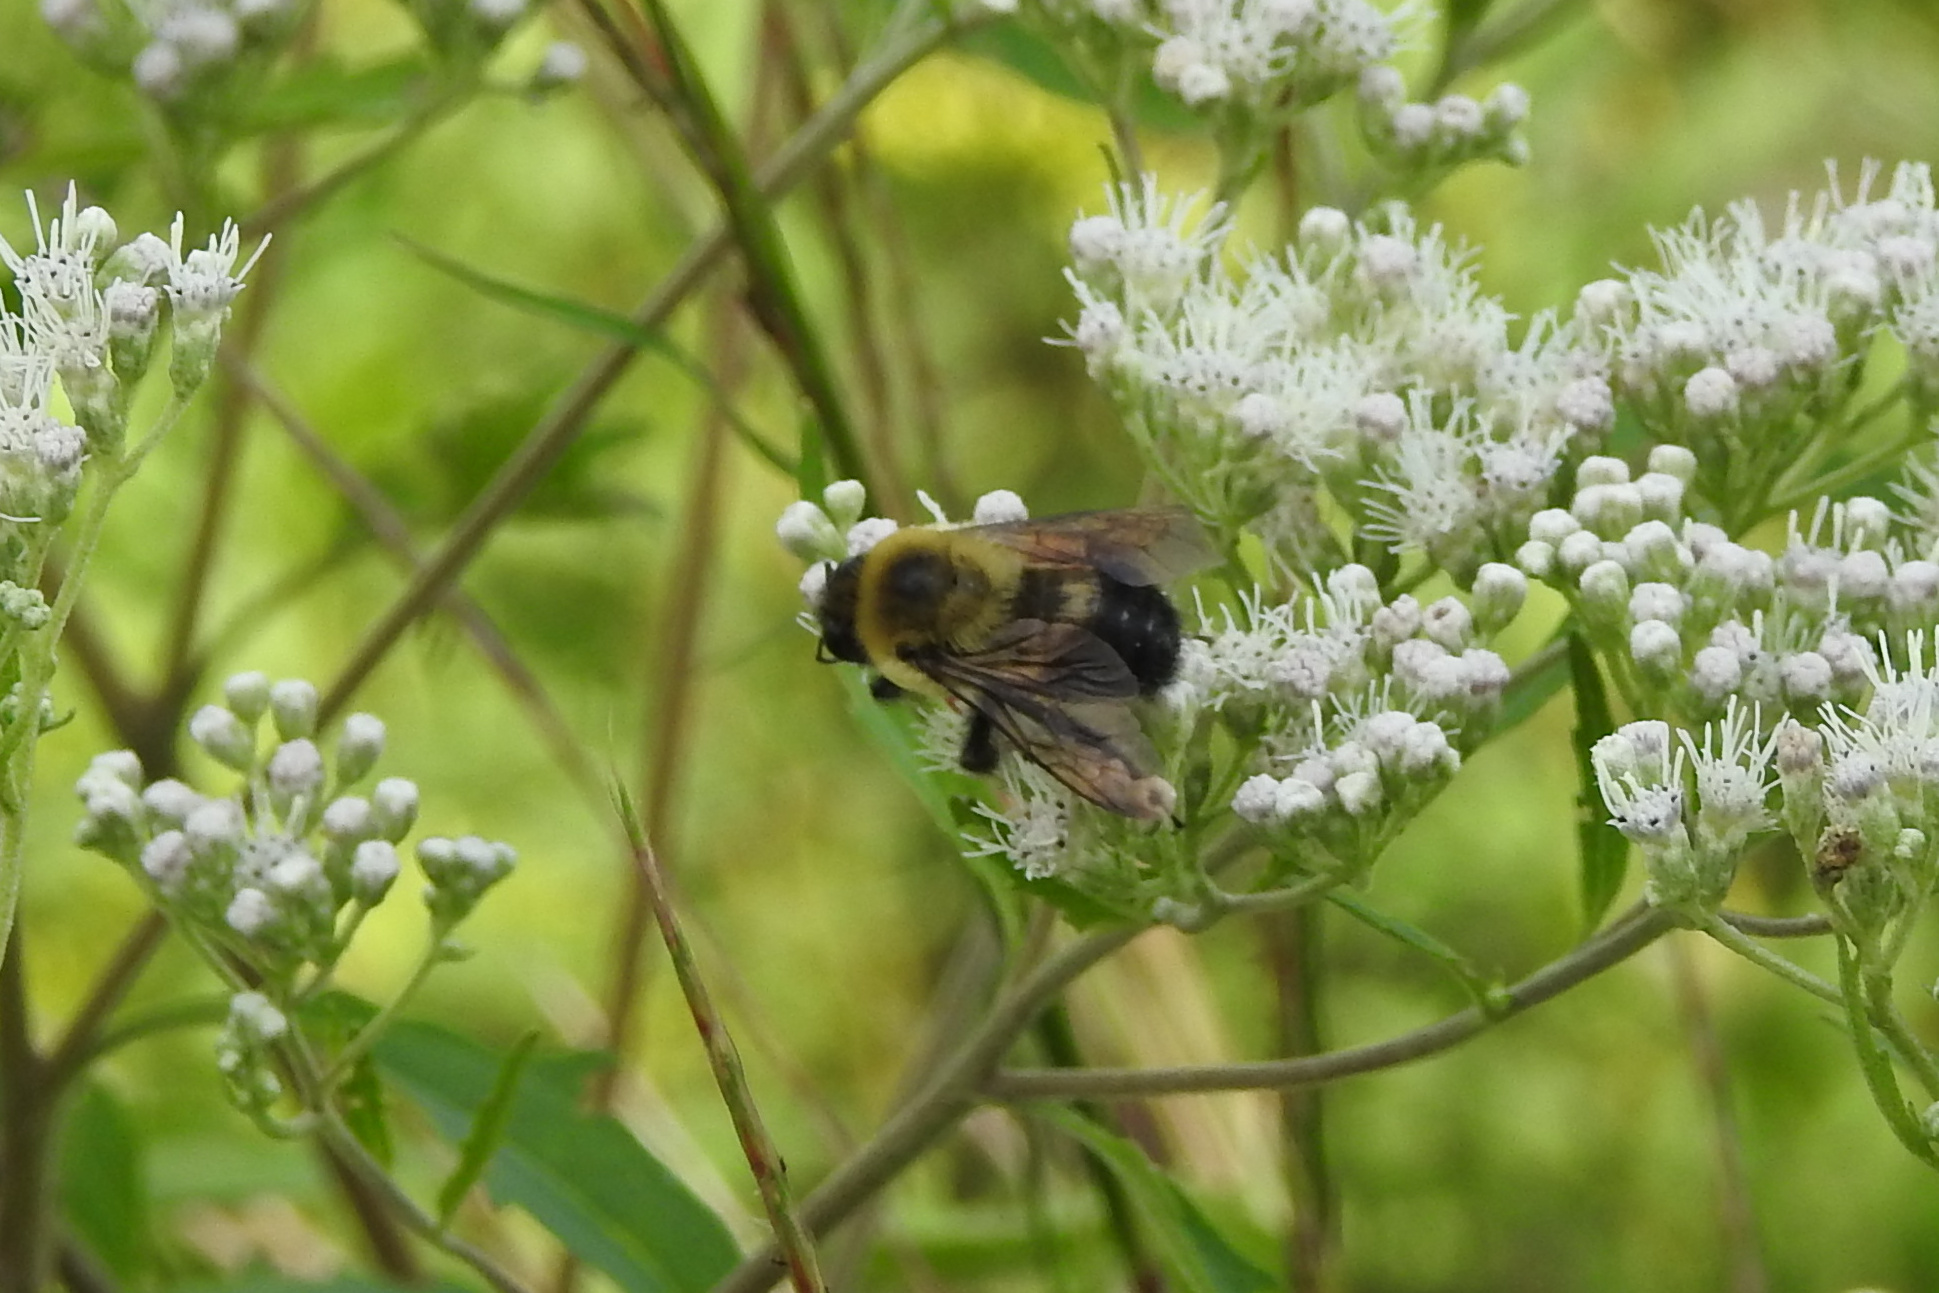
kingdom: Animalia
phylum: Arthropoda
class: Insecta
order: Hymenoptera
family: Apidae
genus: Bombus
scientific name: Bombus griseocollis
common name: Brown-belted bumble bee
